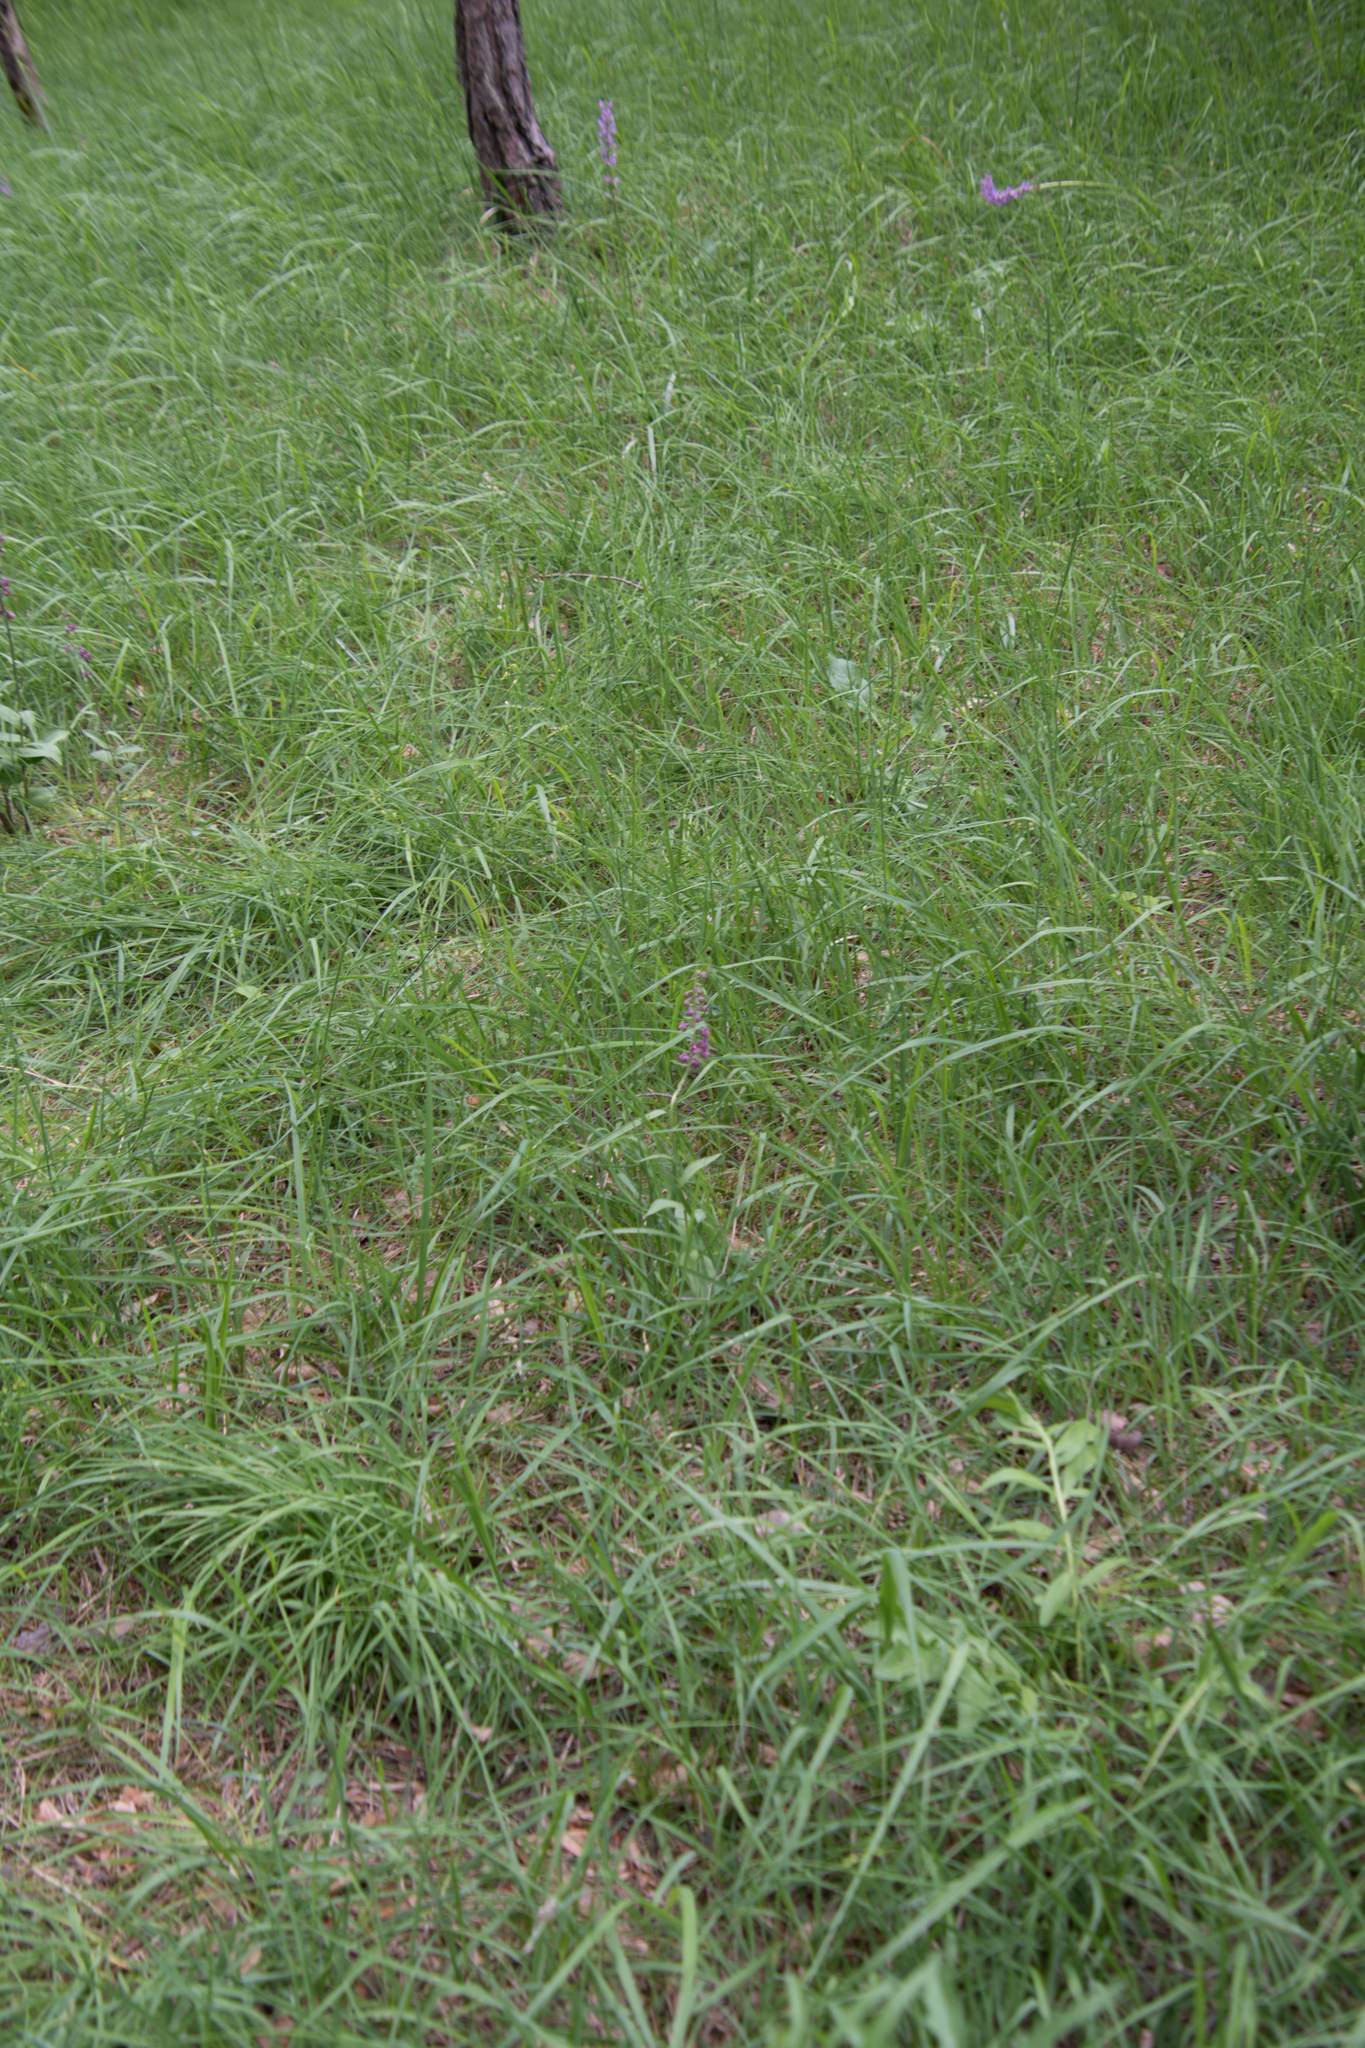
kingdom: Plantae
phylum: Tracheophyta
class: Liliopsida
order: Asparagales
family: Orchidaceae
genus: Epipactis
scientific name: Epipactis atrorubens
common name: Dark-red helleborine
